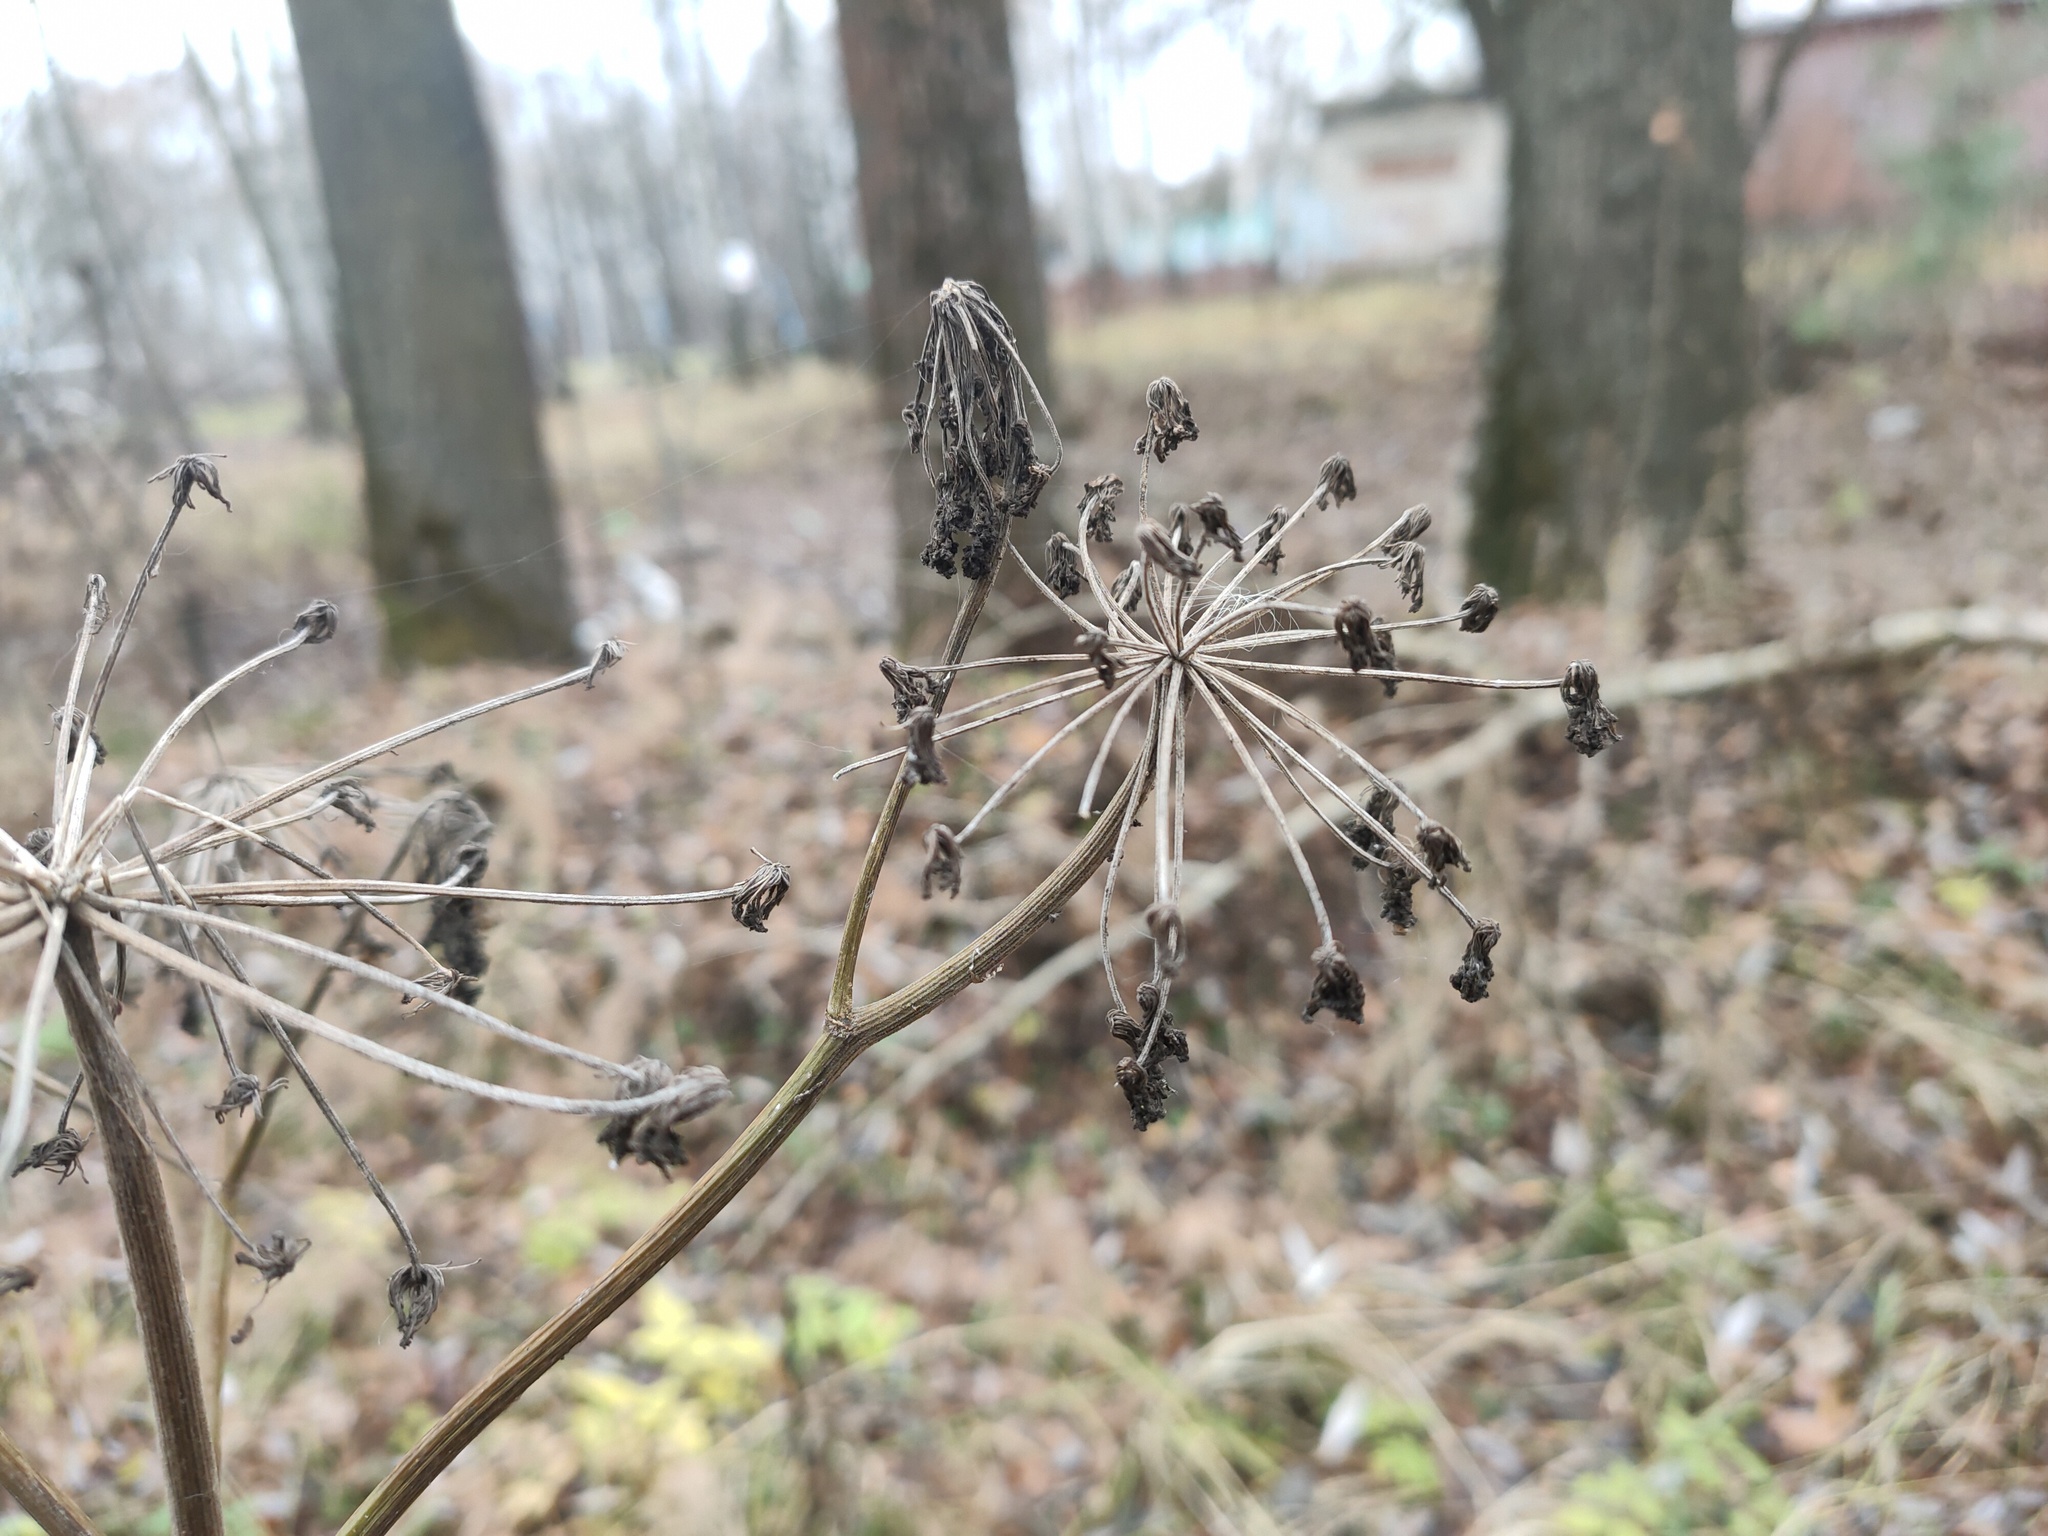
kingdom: Plantae
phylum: Tracheophyta
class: Magnoliopsida
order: Apiales
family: Apiaceae
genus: Angelica
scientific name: Angelica sylvestris
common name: Wild angelica
